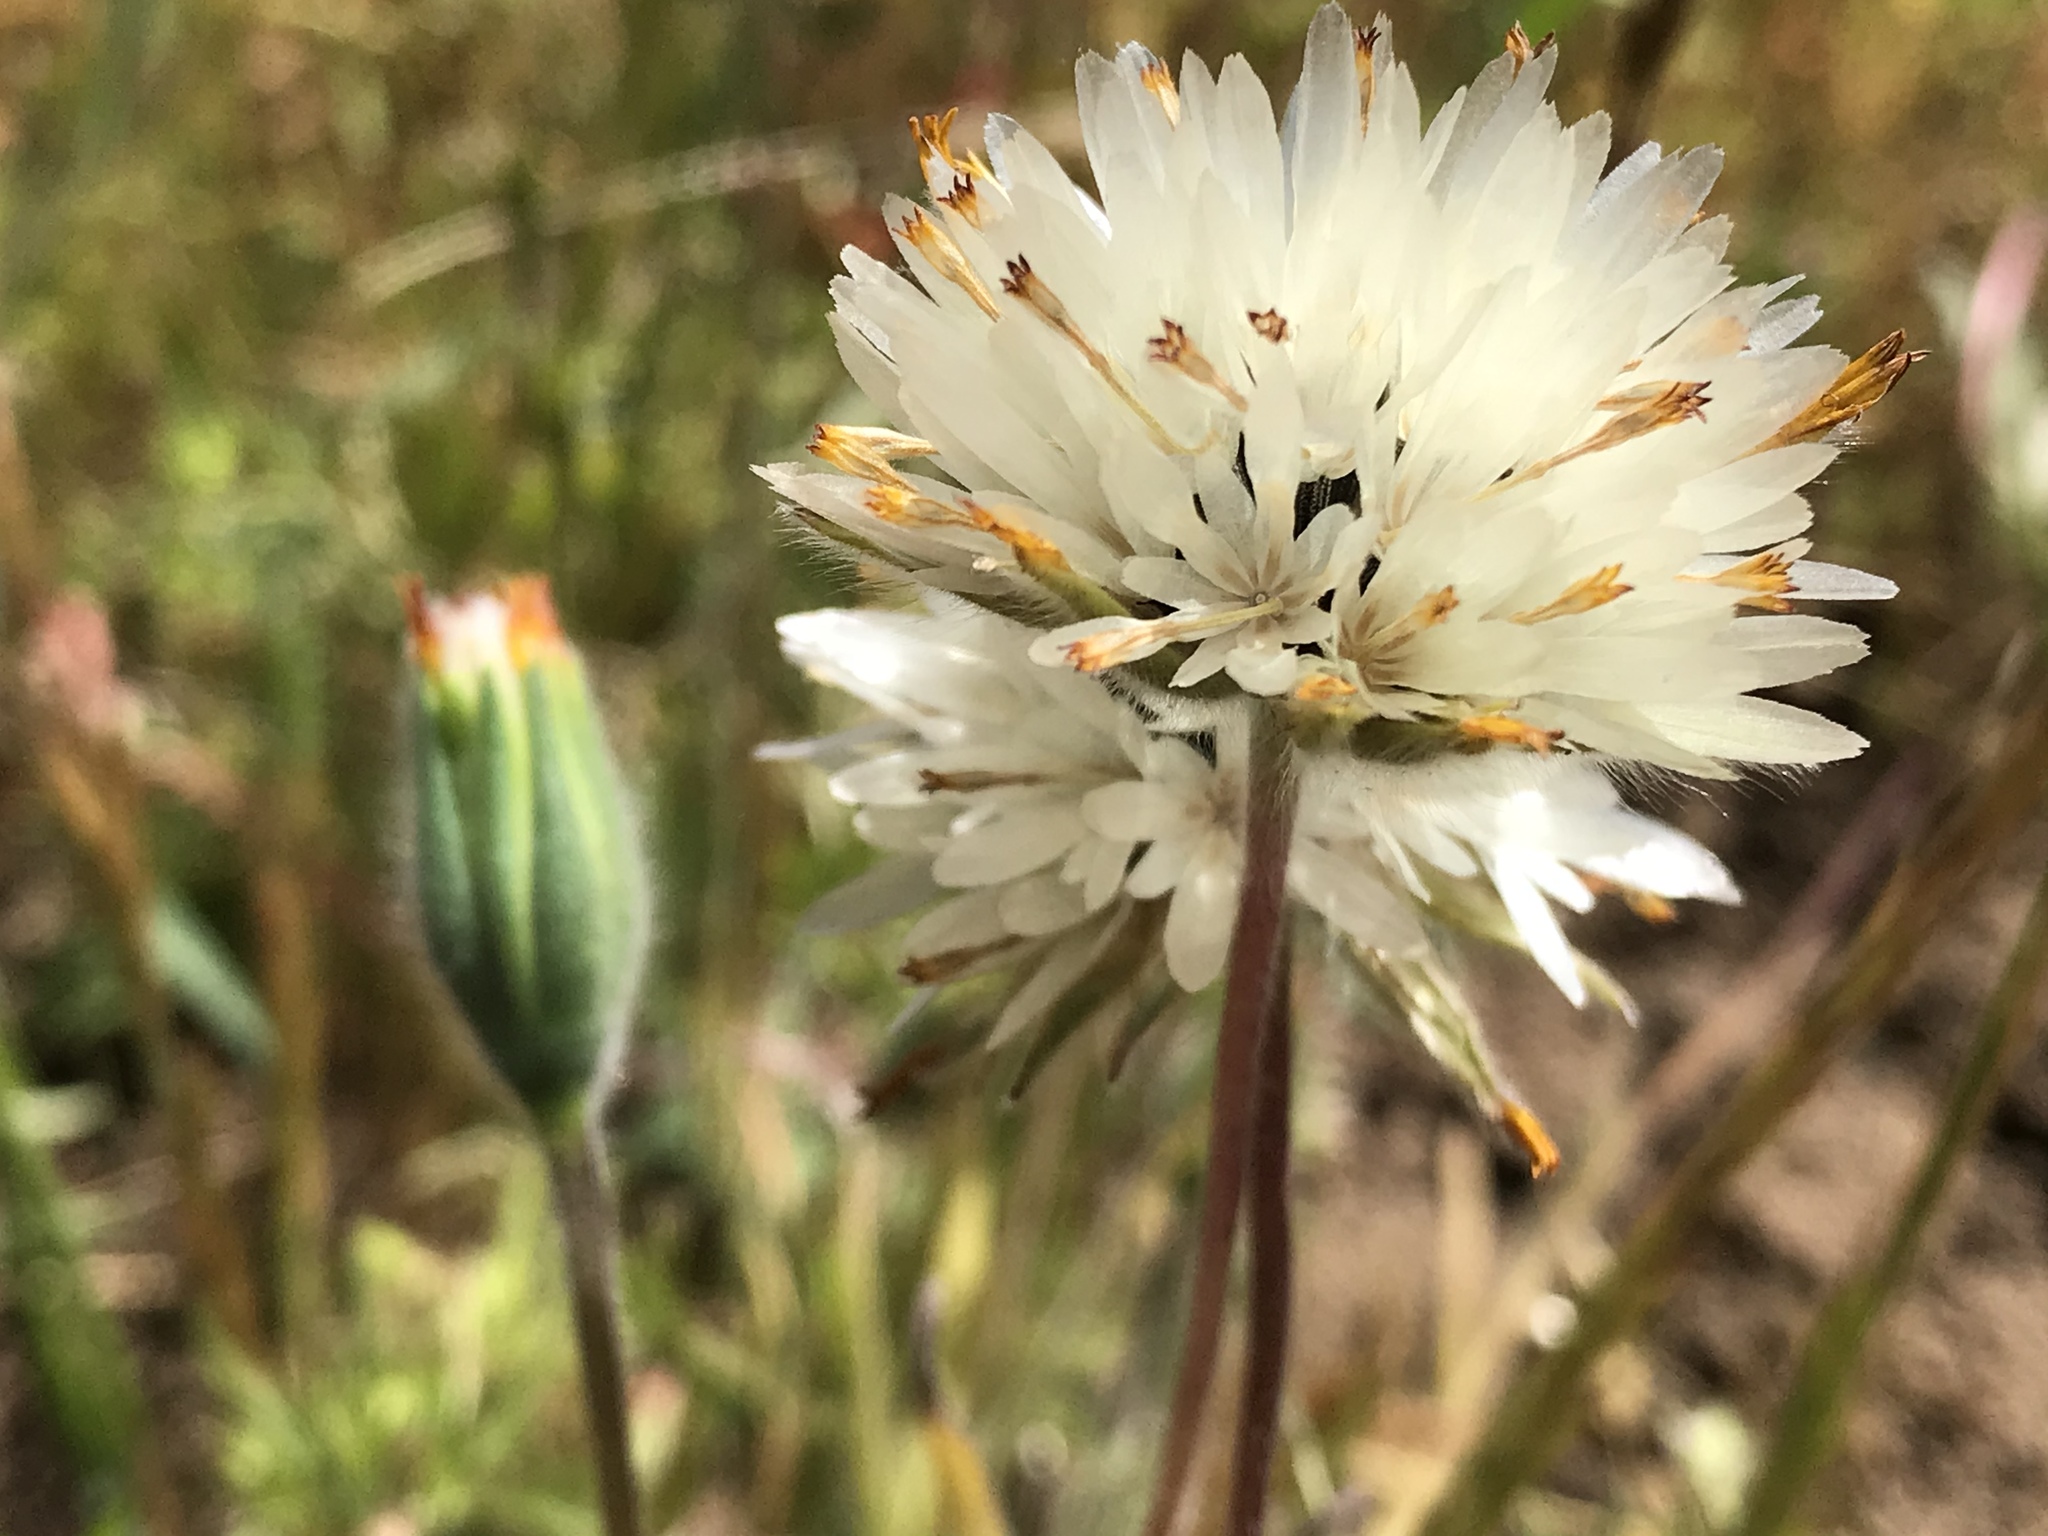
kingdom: Plantae
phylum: Tracheophyta
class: Magnoliopsida
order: Asterales
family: Asteraceae
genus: Achyrachaena
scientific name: Achyrachaena mollis
